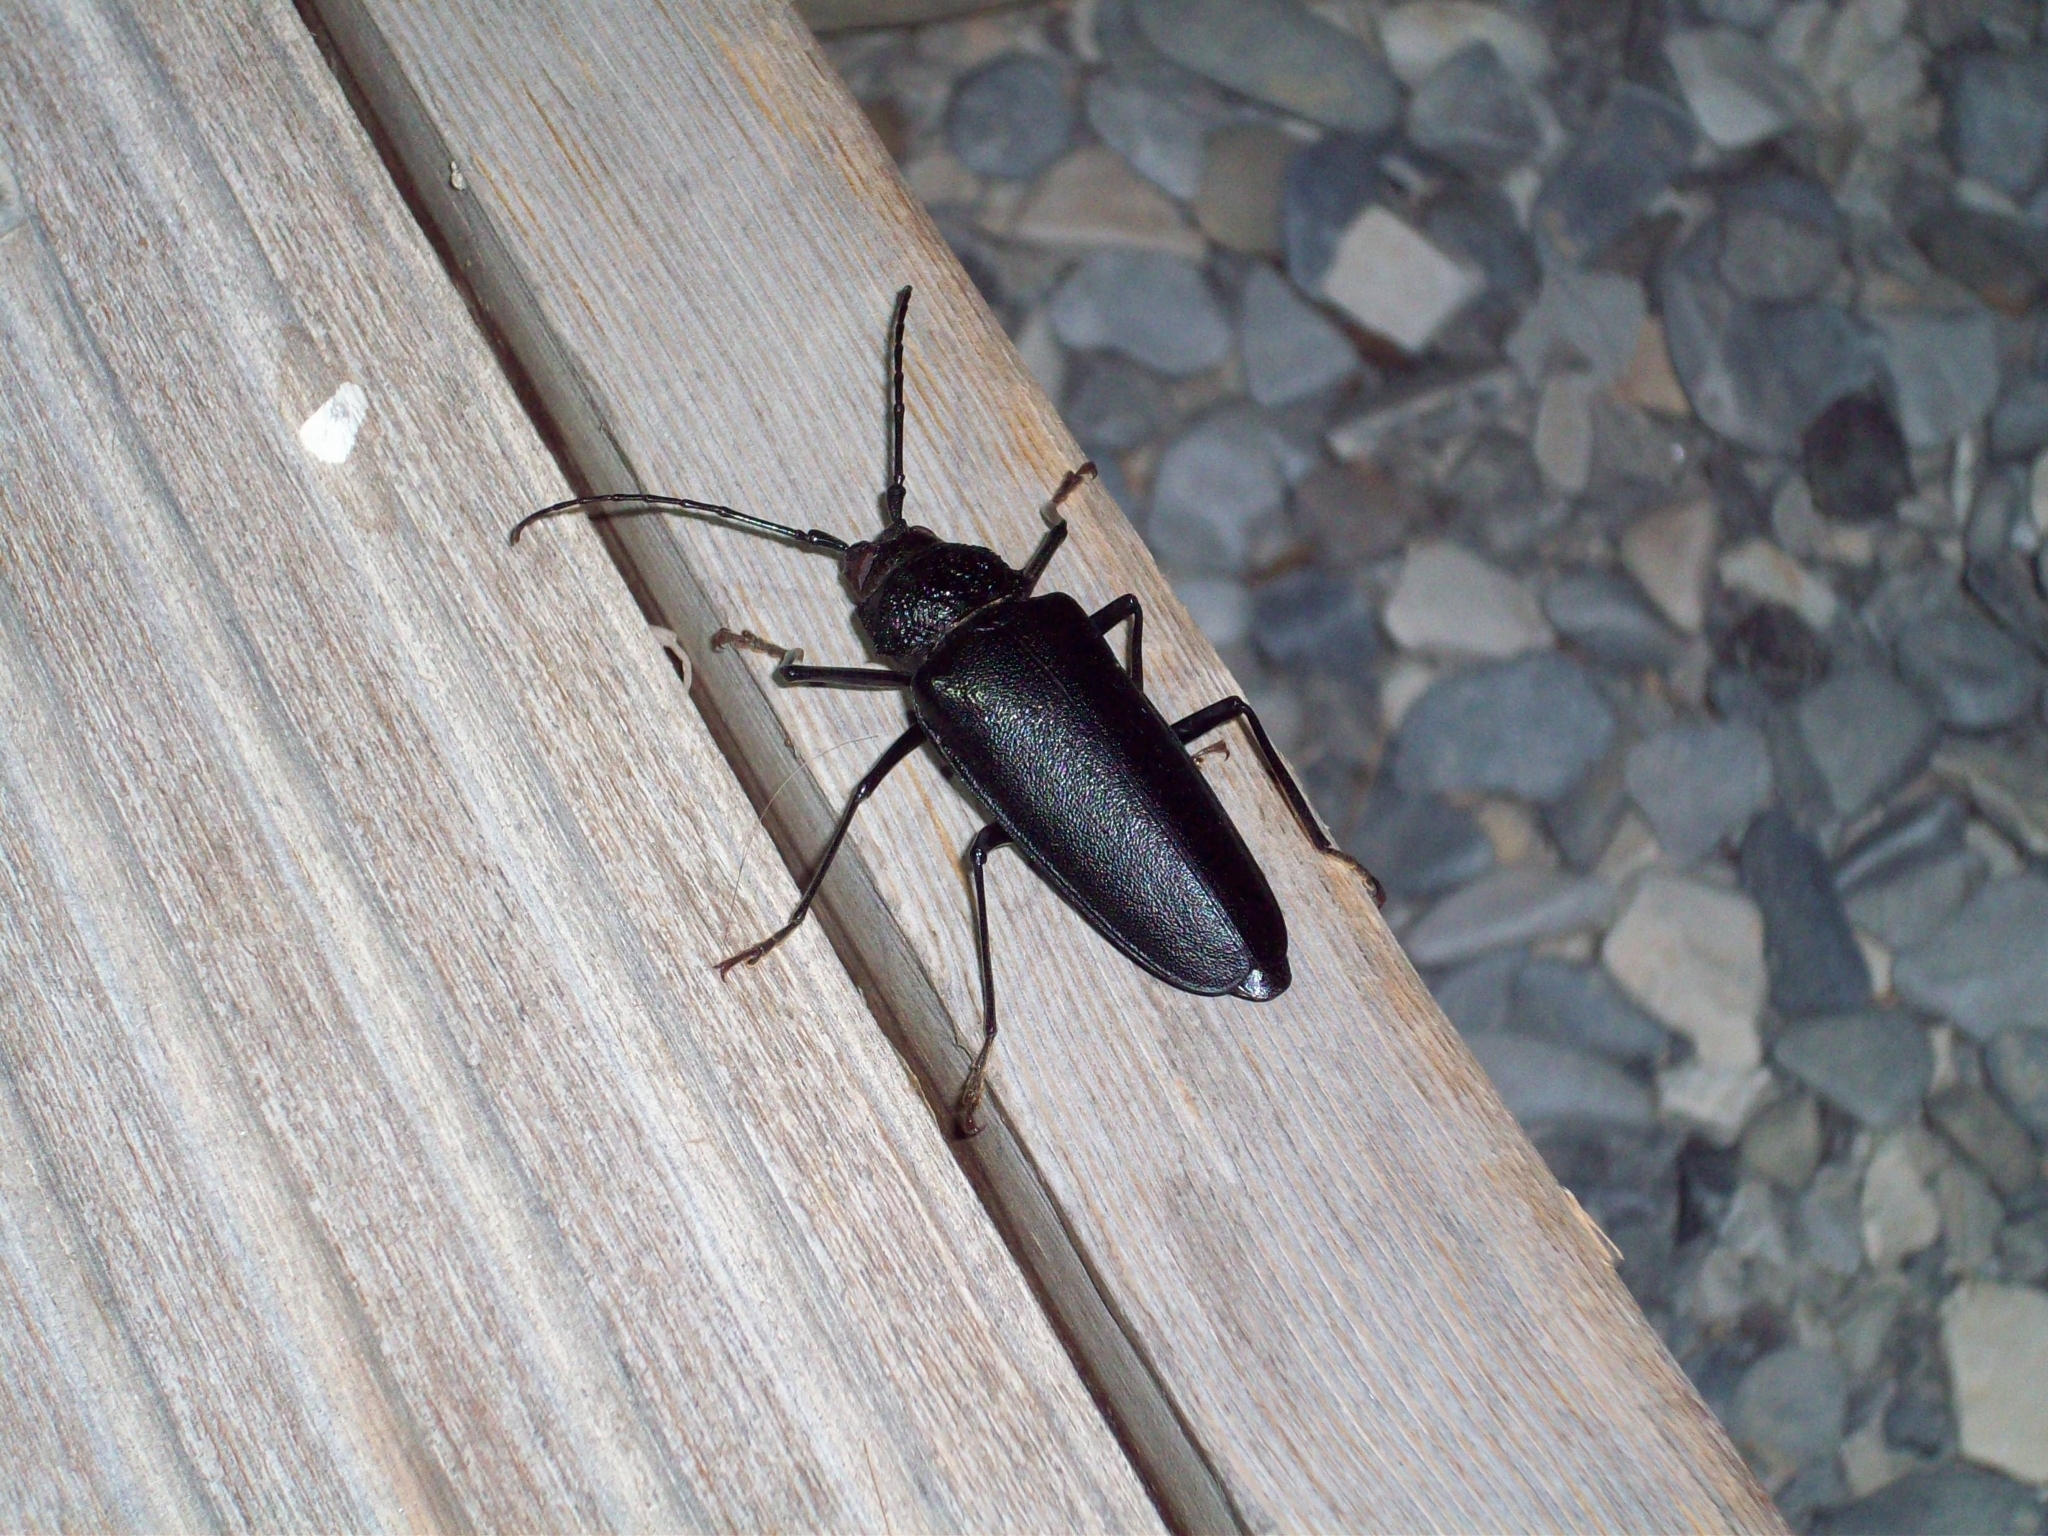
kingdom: Animalia
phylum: Arthropoda
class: Insecta
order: Coleoptera
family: Cerambycidae
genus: Ergates
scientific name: Ergates faber
